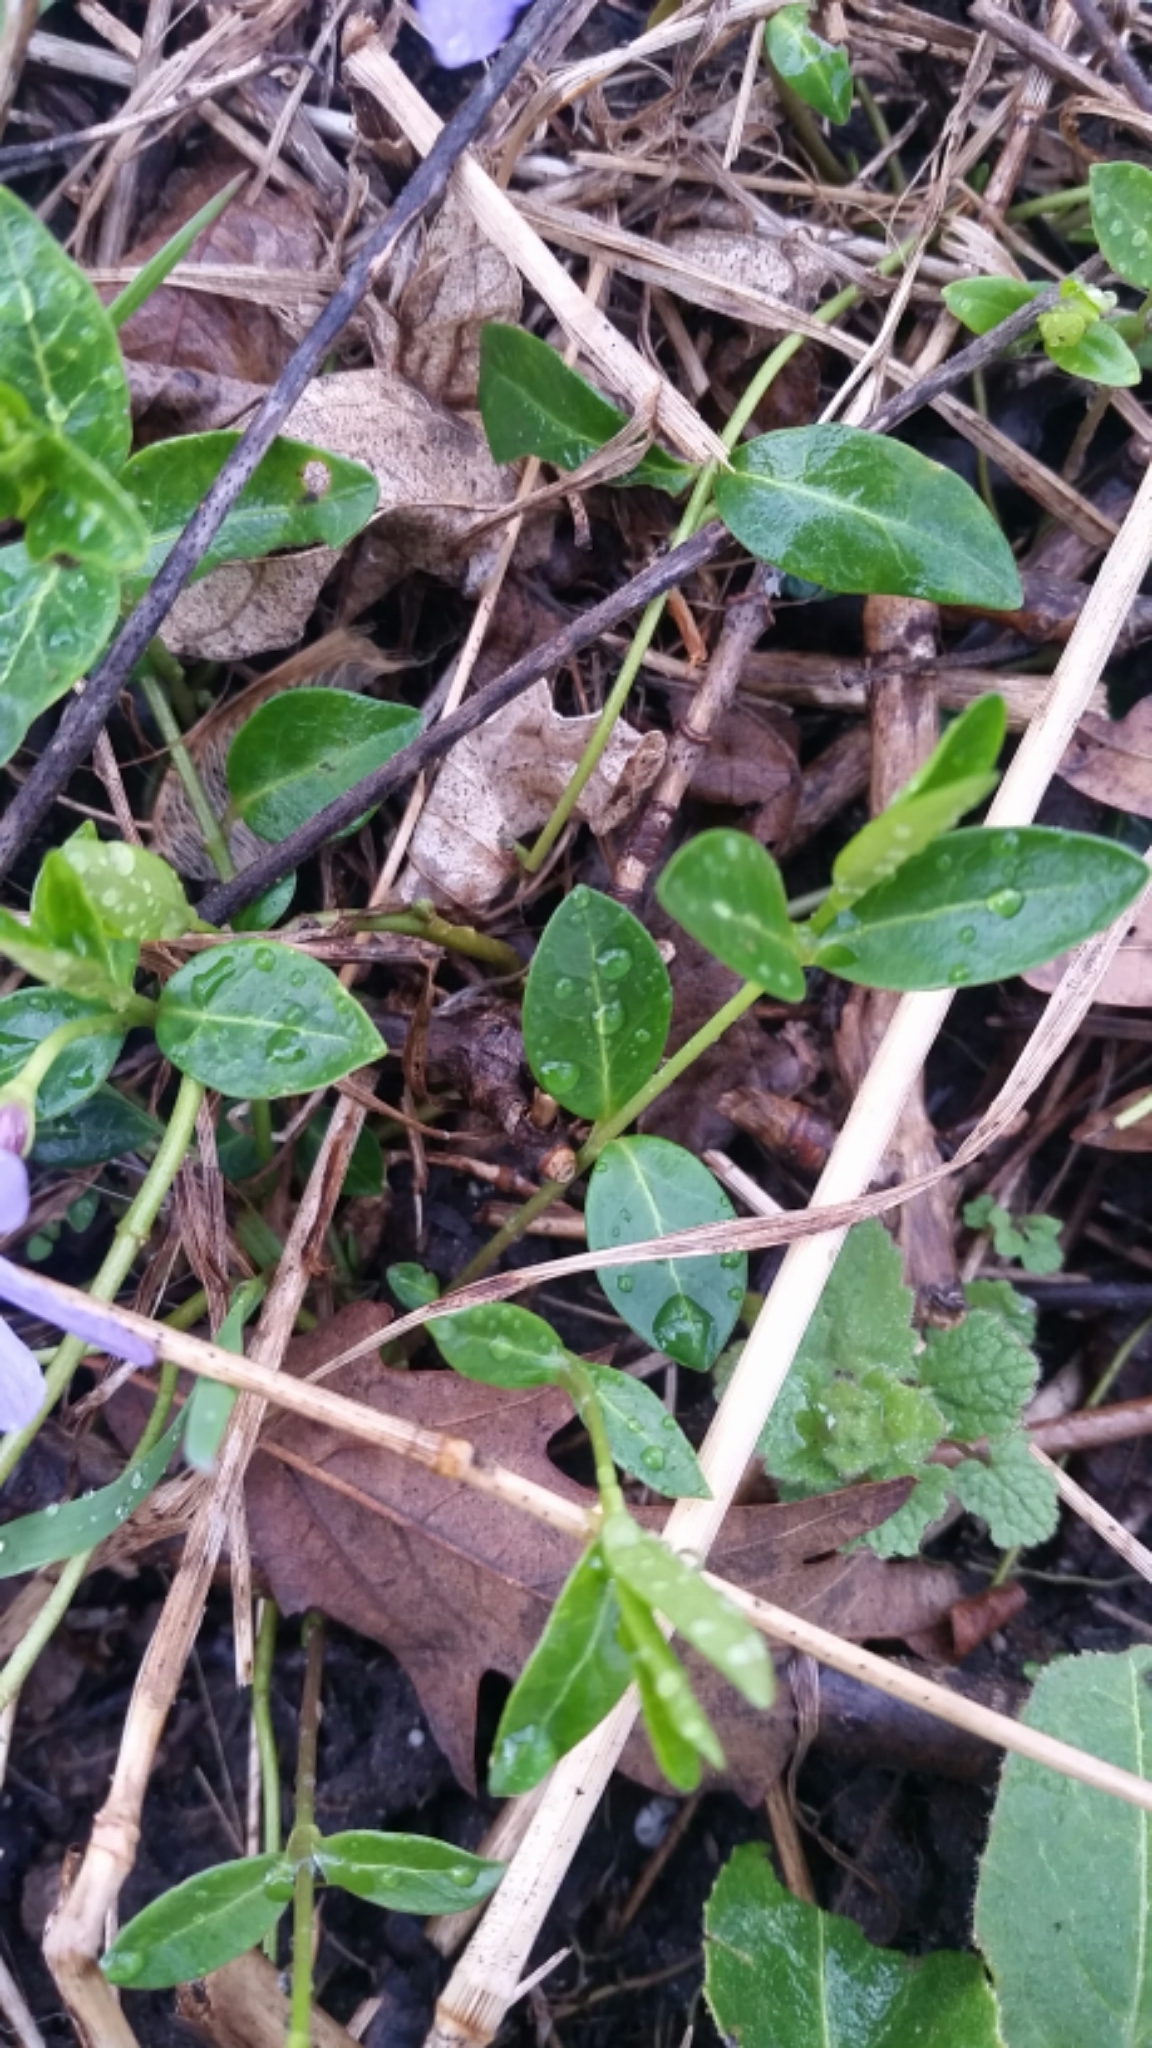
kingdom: Plantae
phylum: Tracheophyta
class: Magnoliopsida
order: Gentianales
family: Apocynaceae
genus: Vinca
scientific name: Vinca minor
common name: Lesser periwinkle
